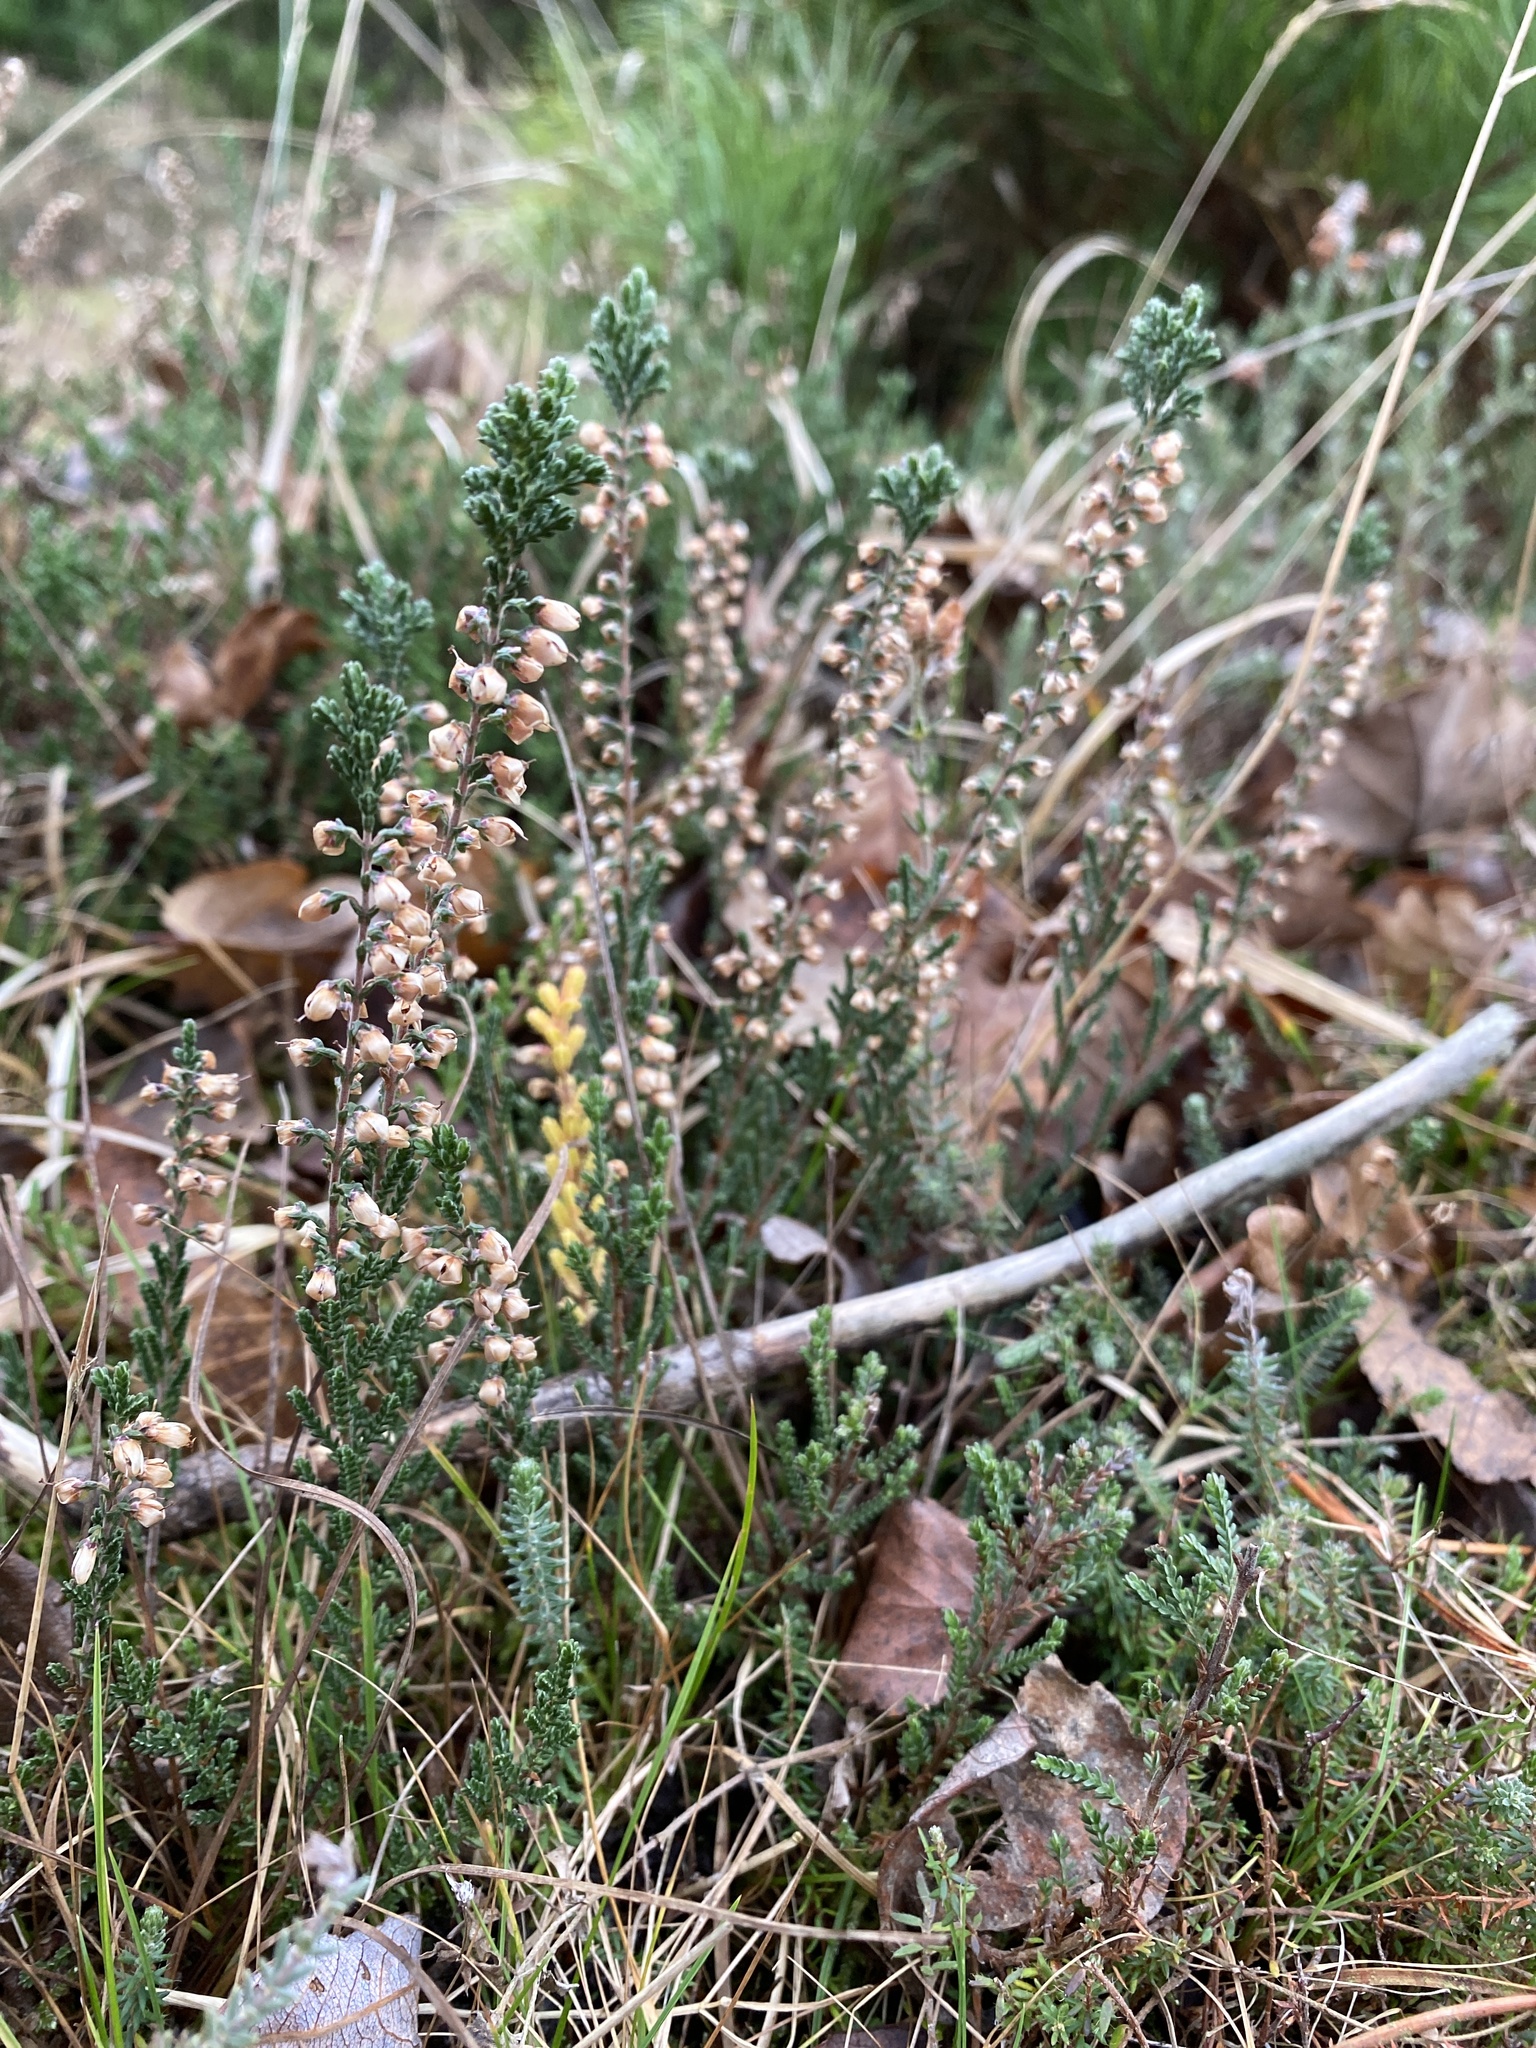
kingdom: Plantae
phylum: Tracheophyta
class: Magnoliopsida
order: Ericales
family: Ericaceae
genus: Calluna
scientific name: Calluna vulgaris
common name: Heather
